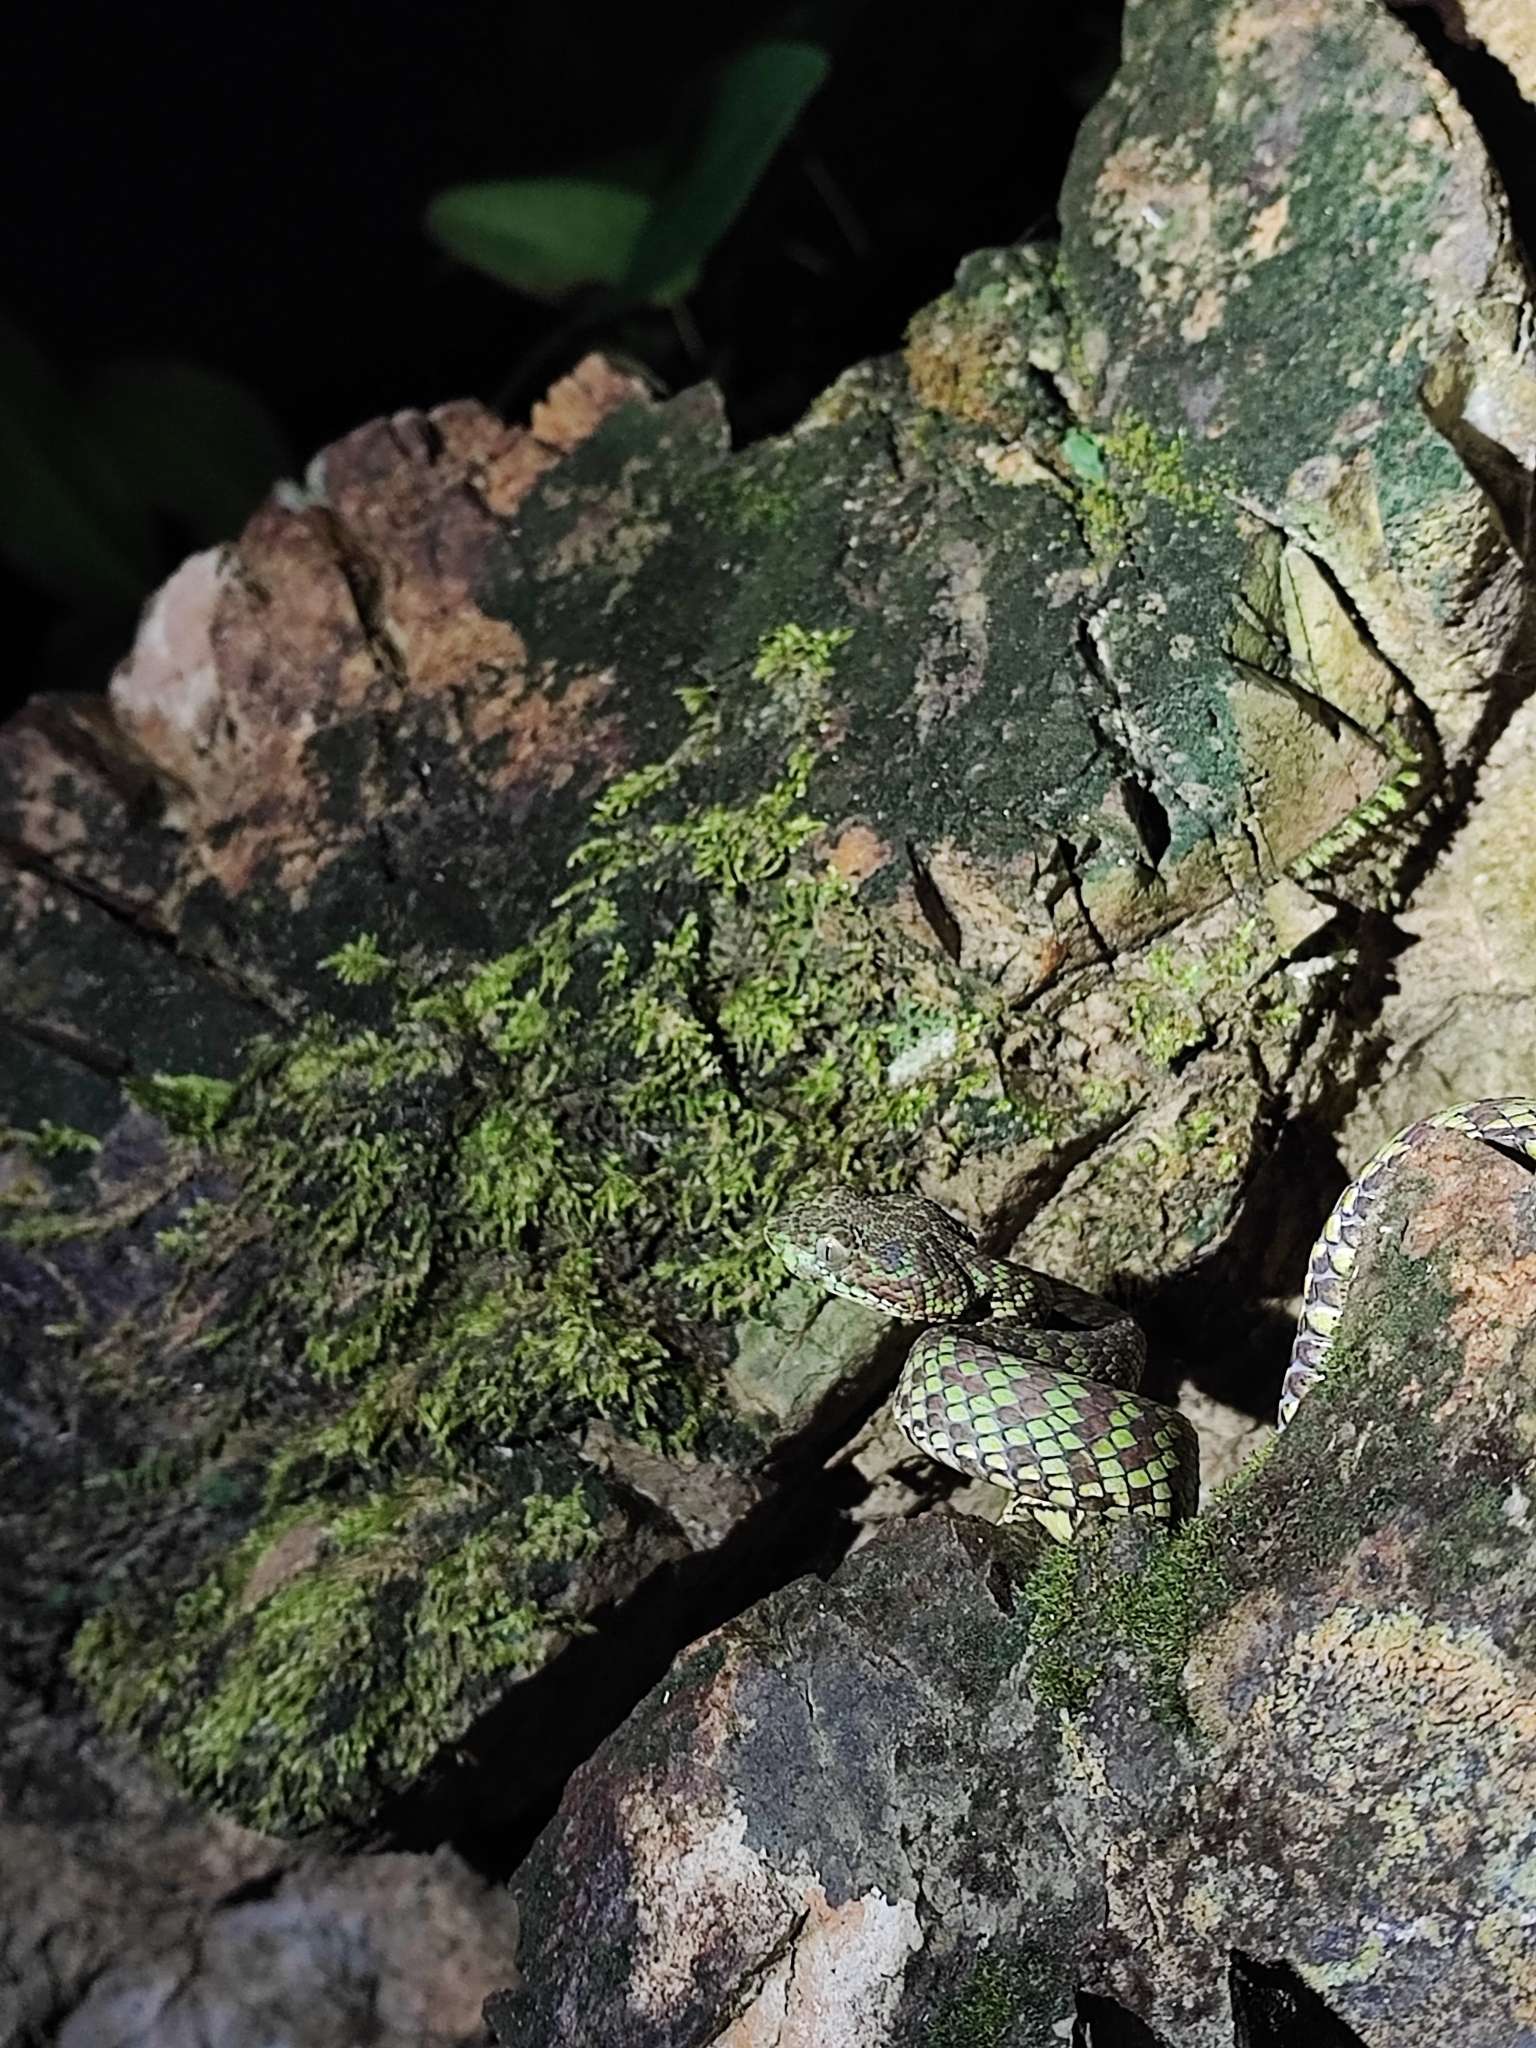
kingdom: Animalia
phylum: Chordata
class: Squamata
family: Viperidae
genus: Trimeresurus
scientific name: Trimeresurus venustus
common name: Brown-spotted pit viper
